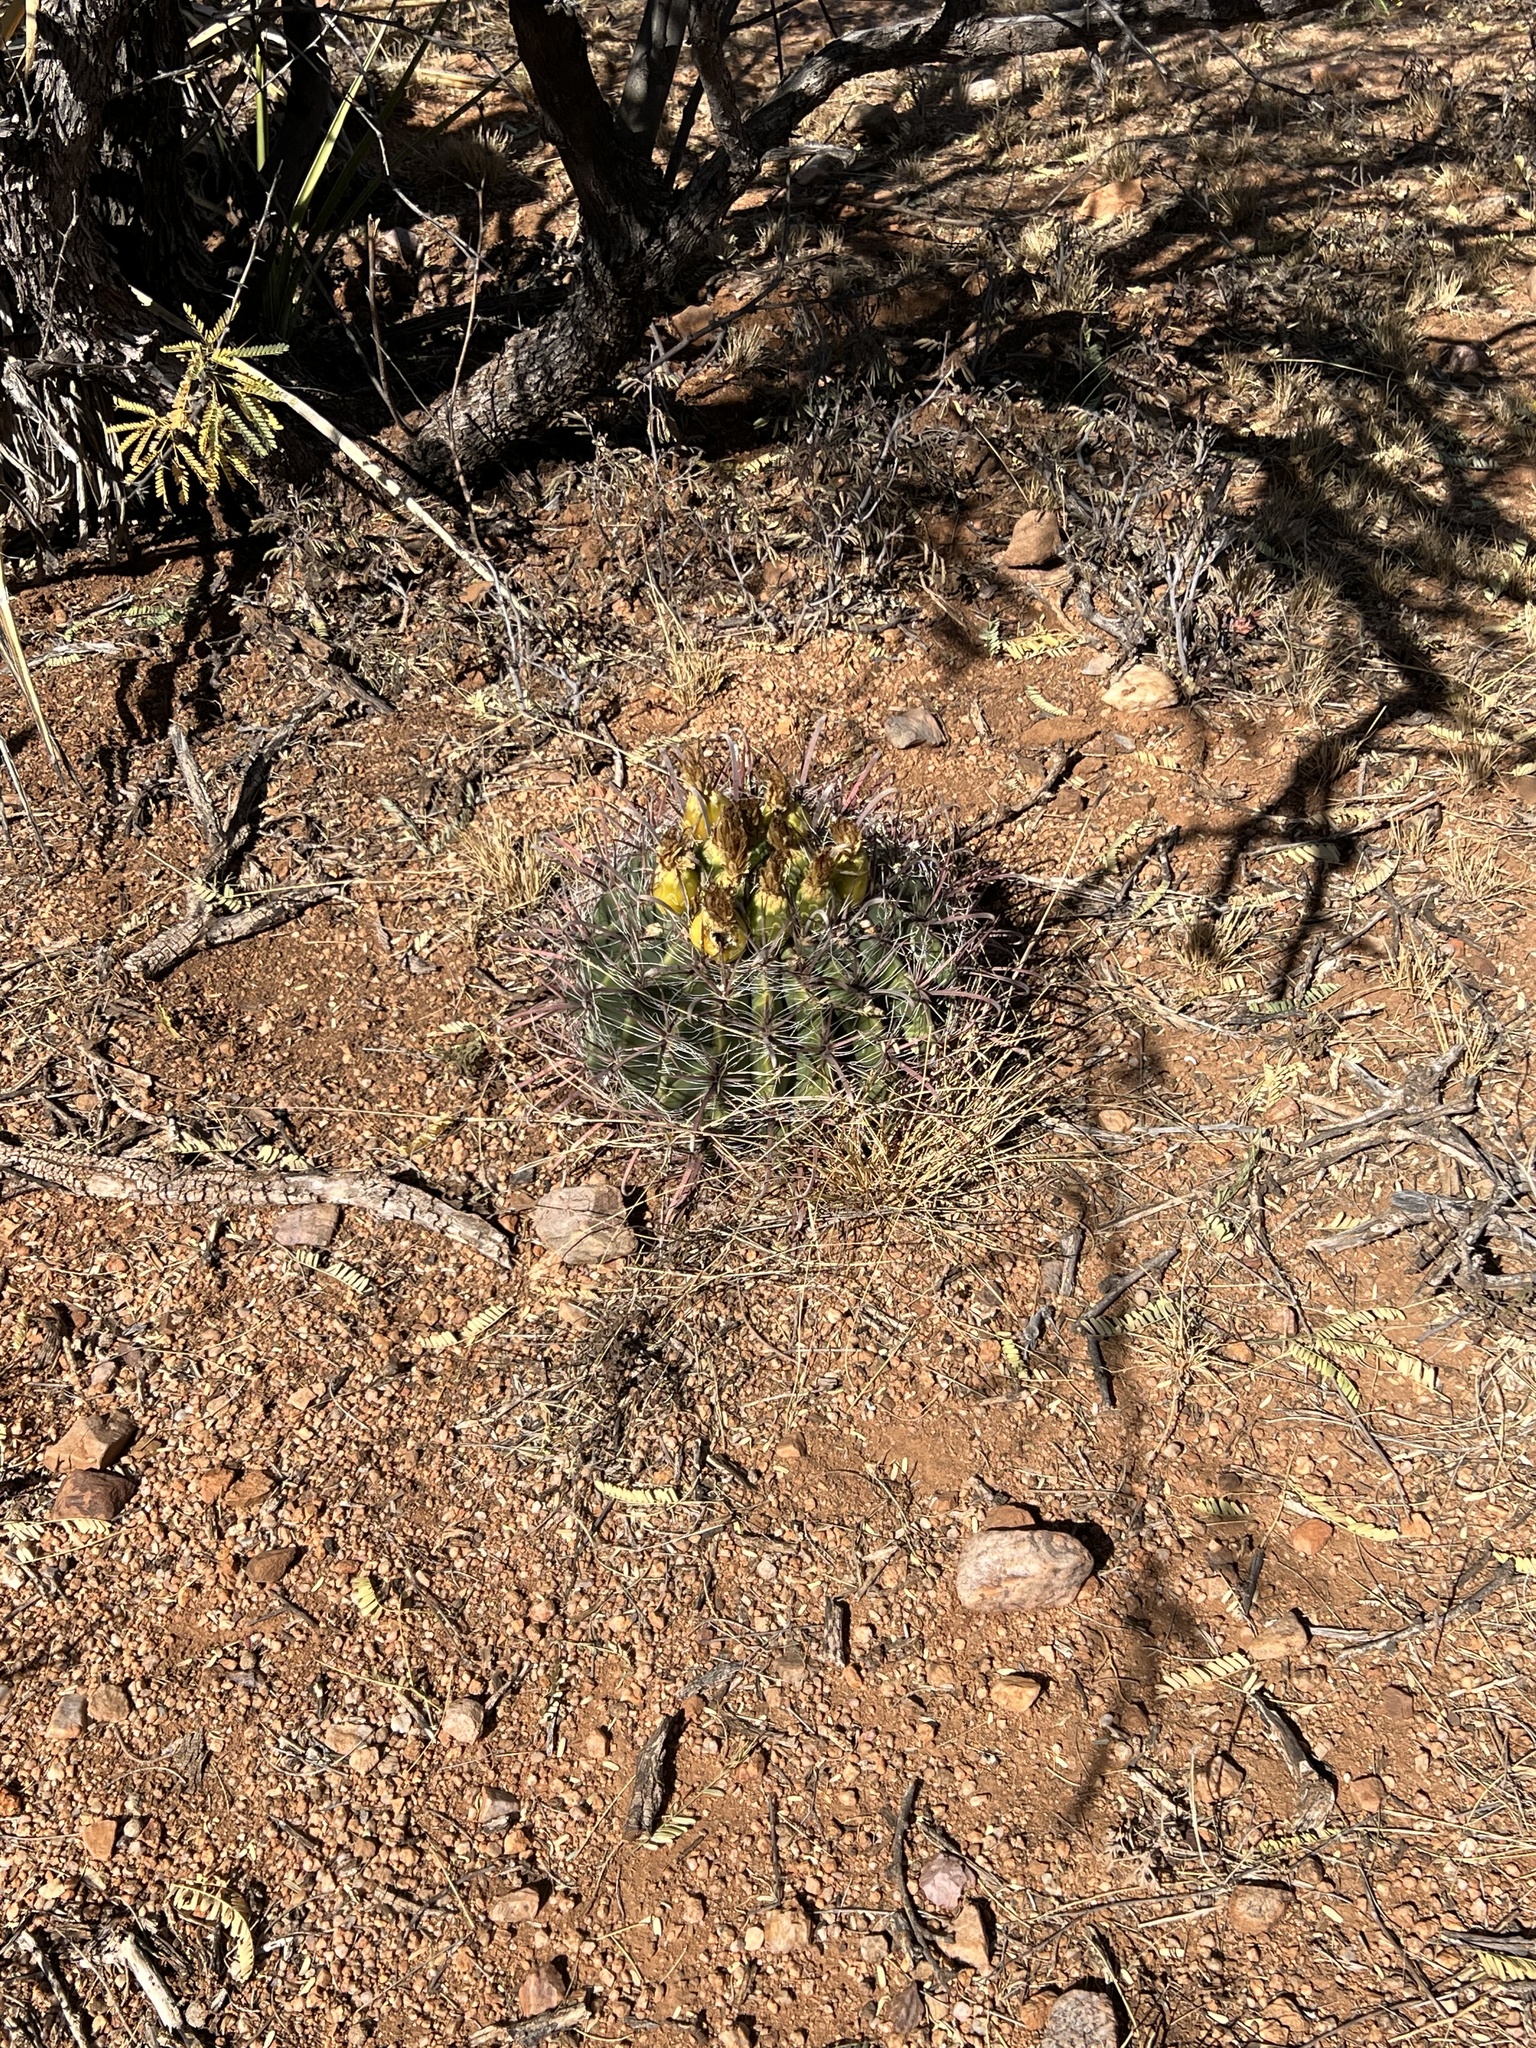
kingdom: Plantae
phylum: Tracheophyta
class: Magnoliopsida
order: Caryophyllales
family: Cactaceae
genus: Ferocactus
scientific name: Ferocactus wislizeni
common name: Candy barrel cactus
